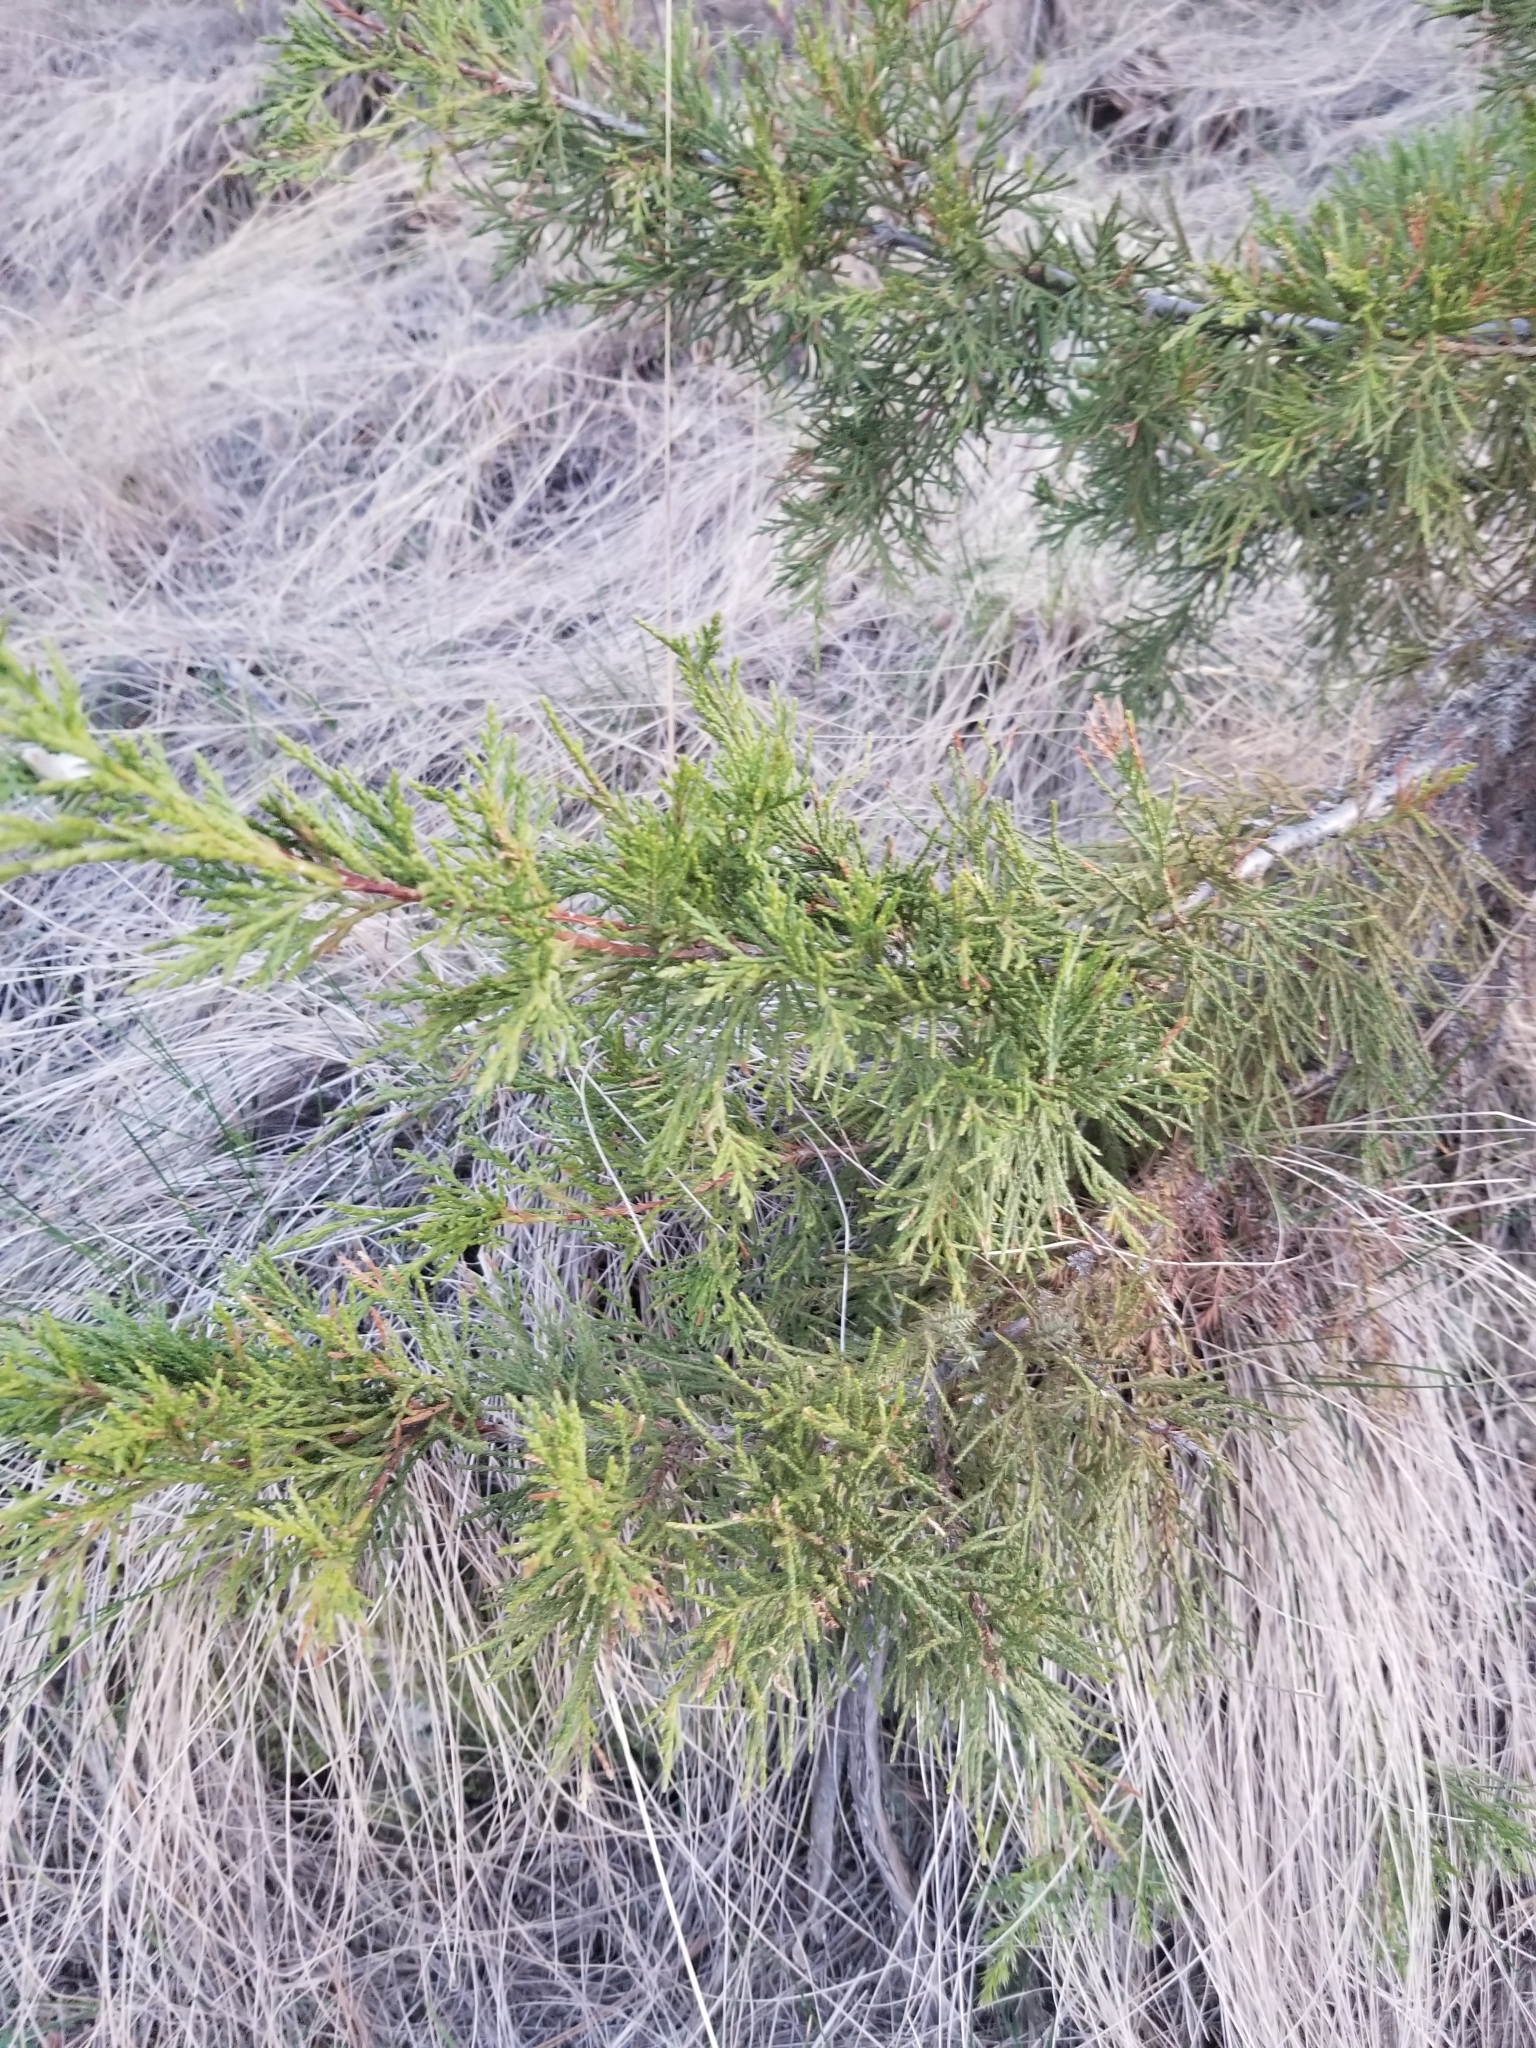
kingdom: Plantae
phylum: Tracheophyta
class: Pinopsida
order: Pinales
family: Cupressaceae
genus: Juniperus
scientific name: Juniperus scopulorum
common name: Rocky mountain juniper
